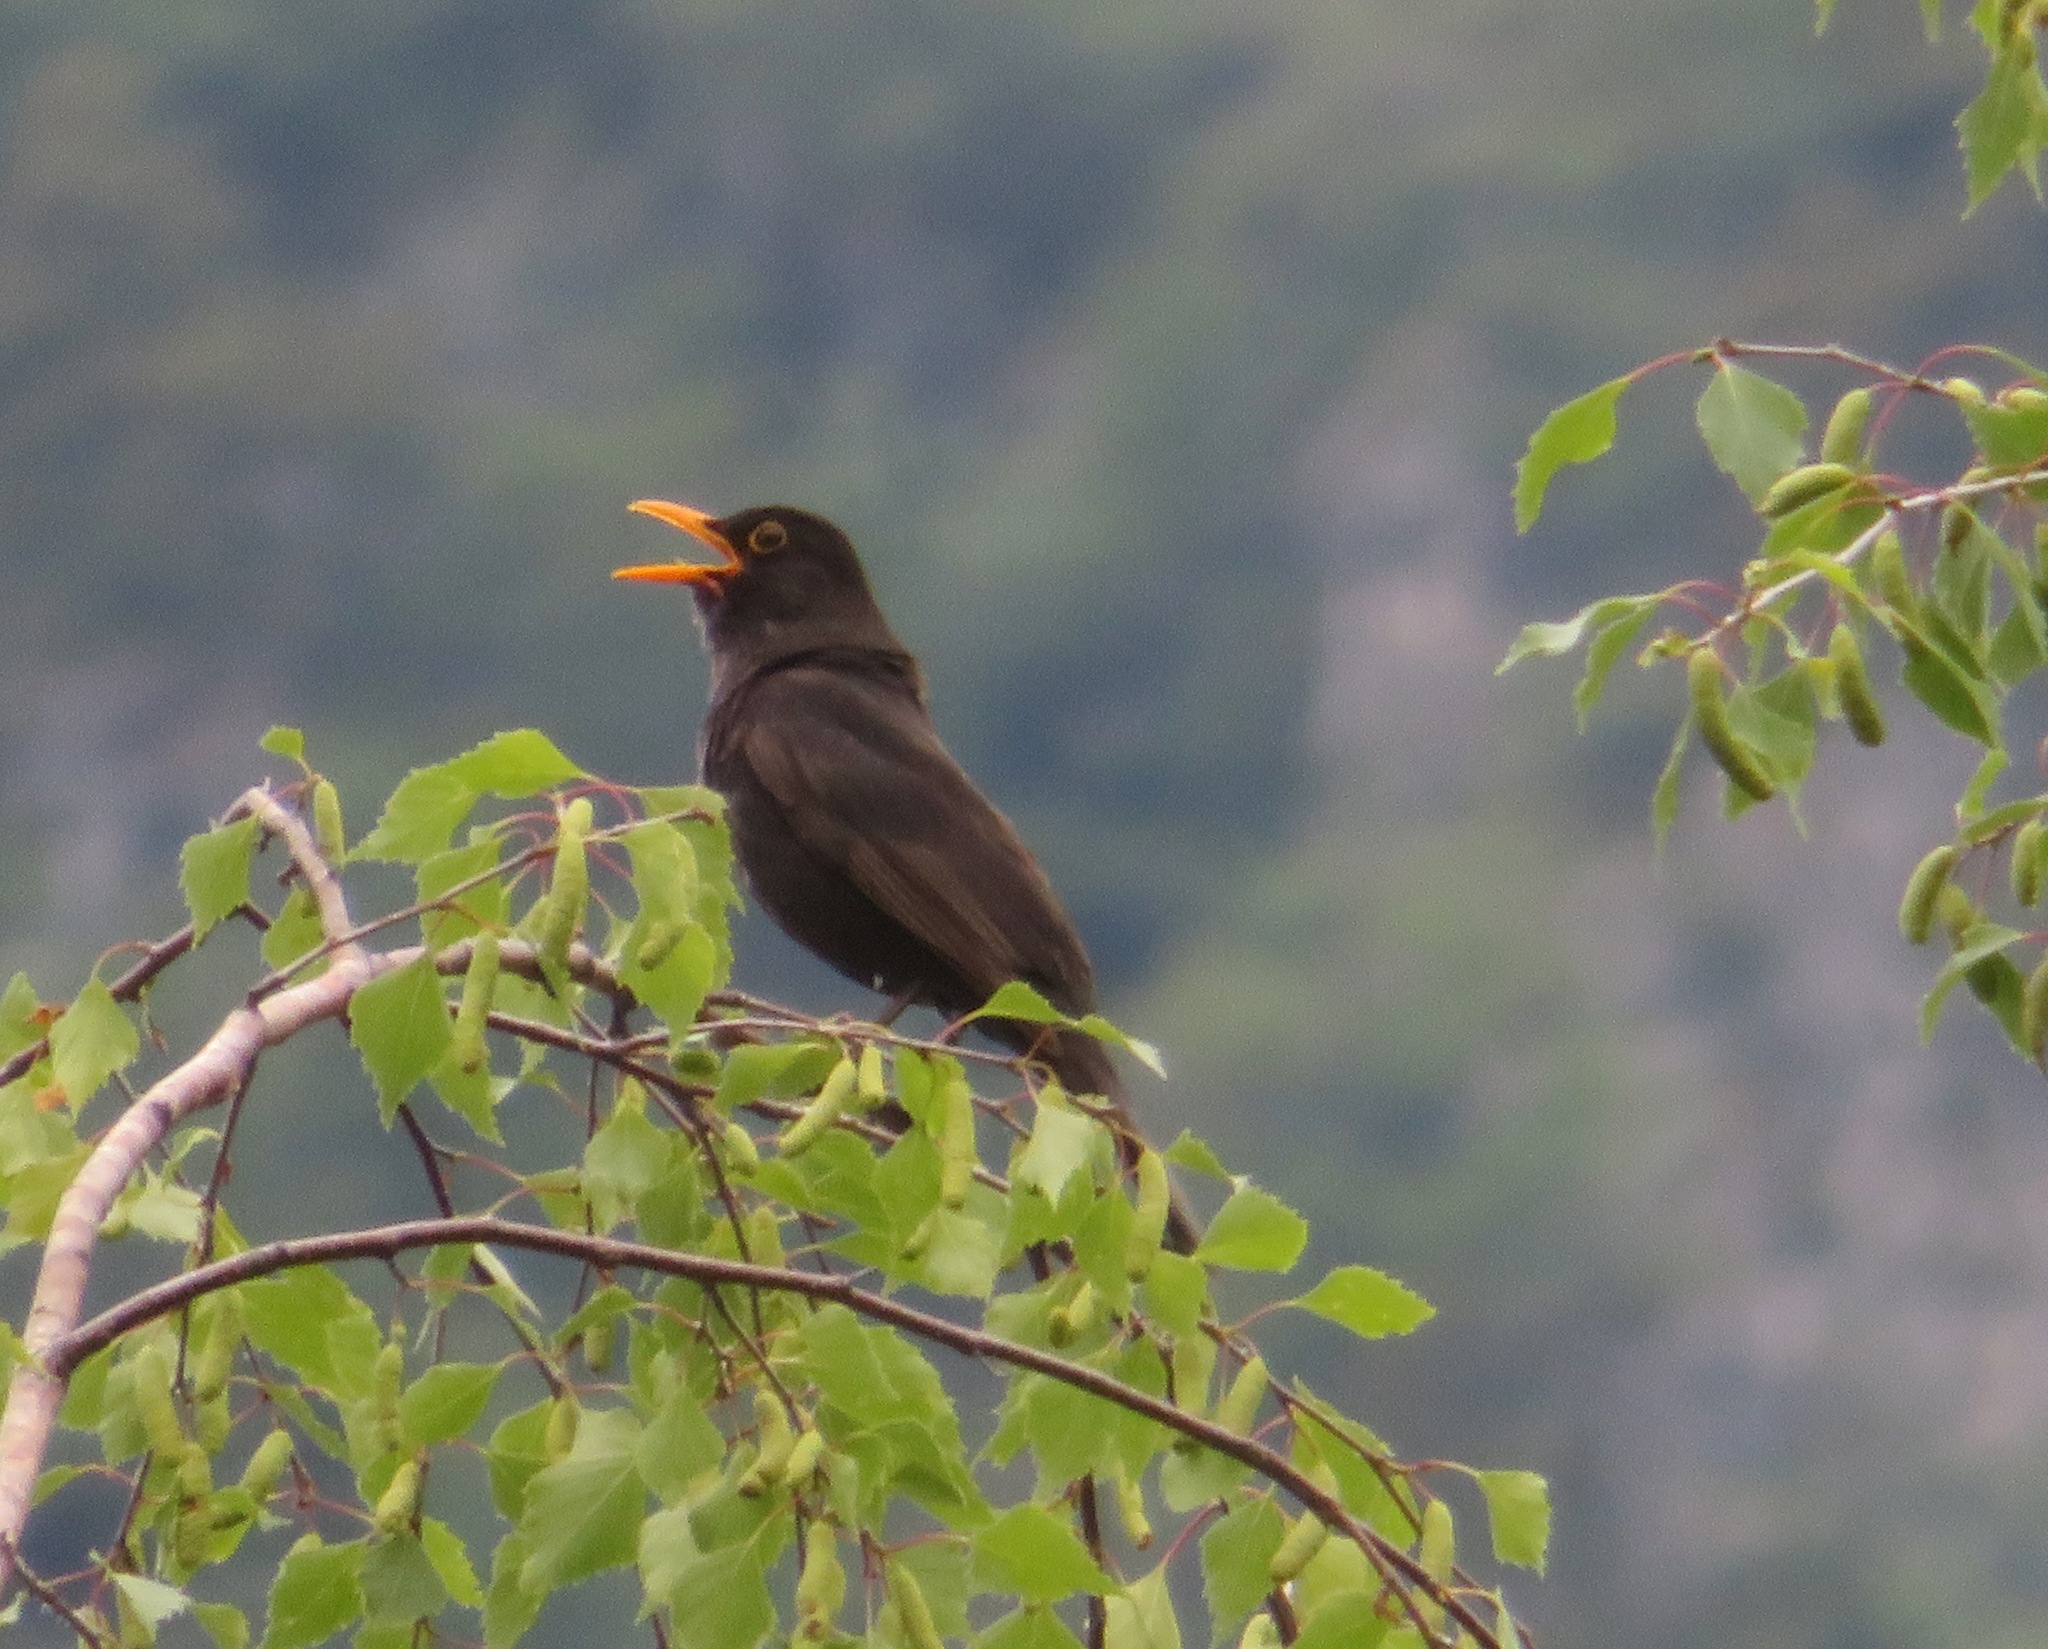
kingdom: Animalia
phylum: Chordata
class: Aves
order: Passeriformes
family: Turdidae
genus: Turdus
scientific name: Turdus merula
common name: Common blackbird
